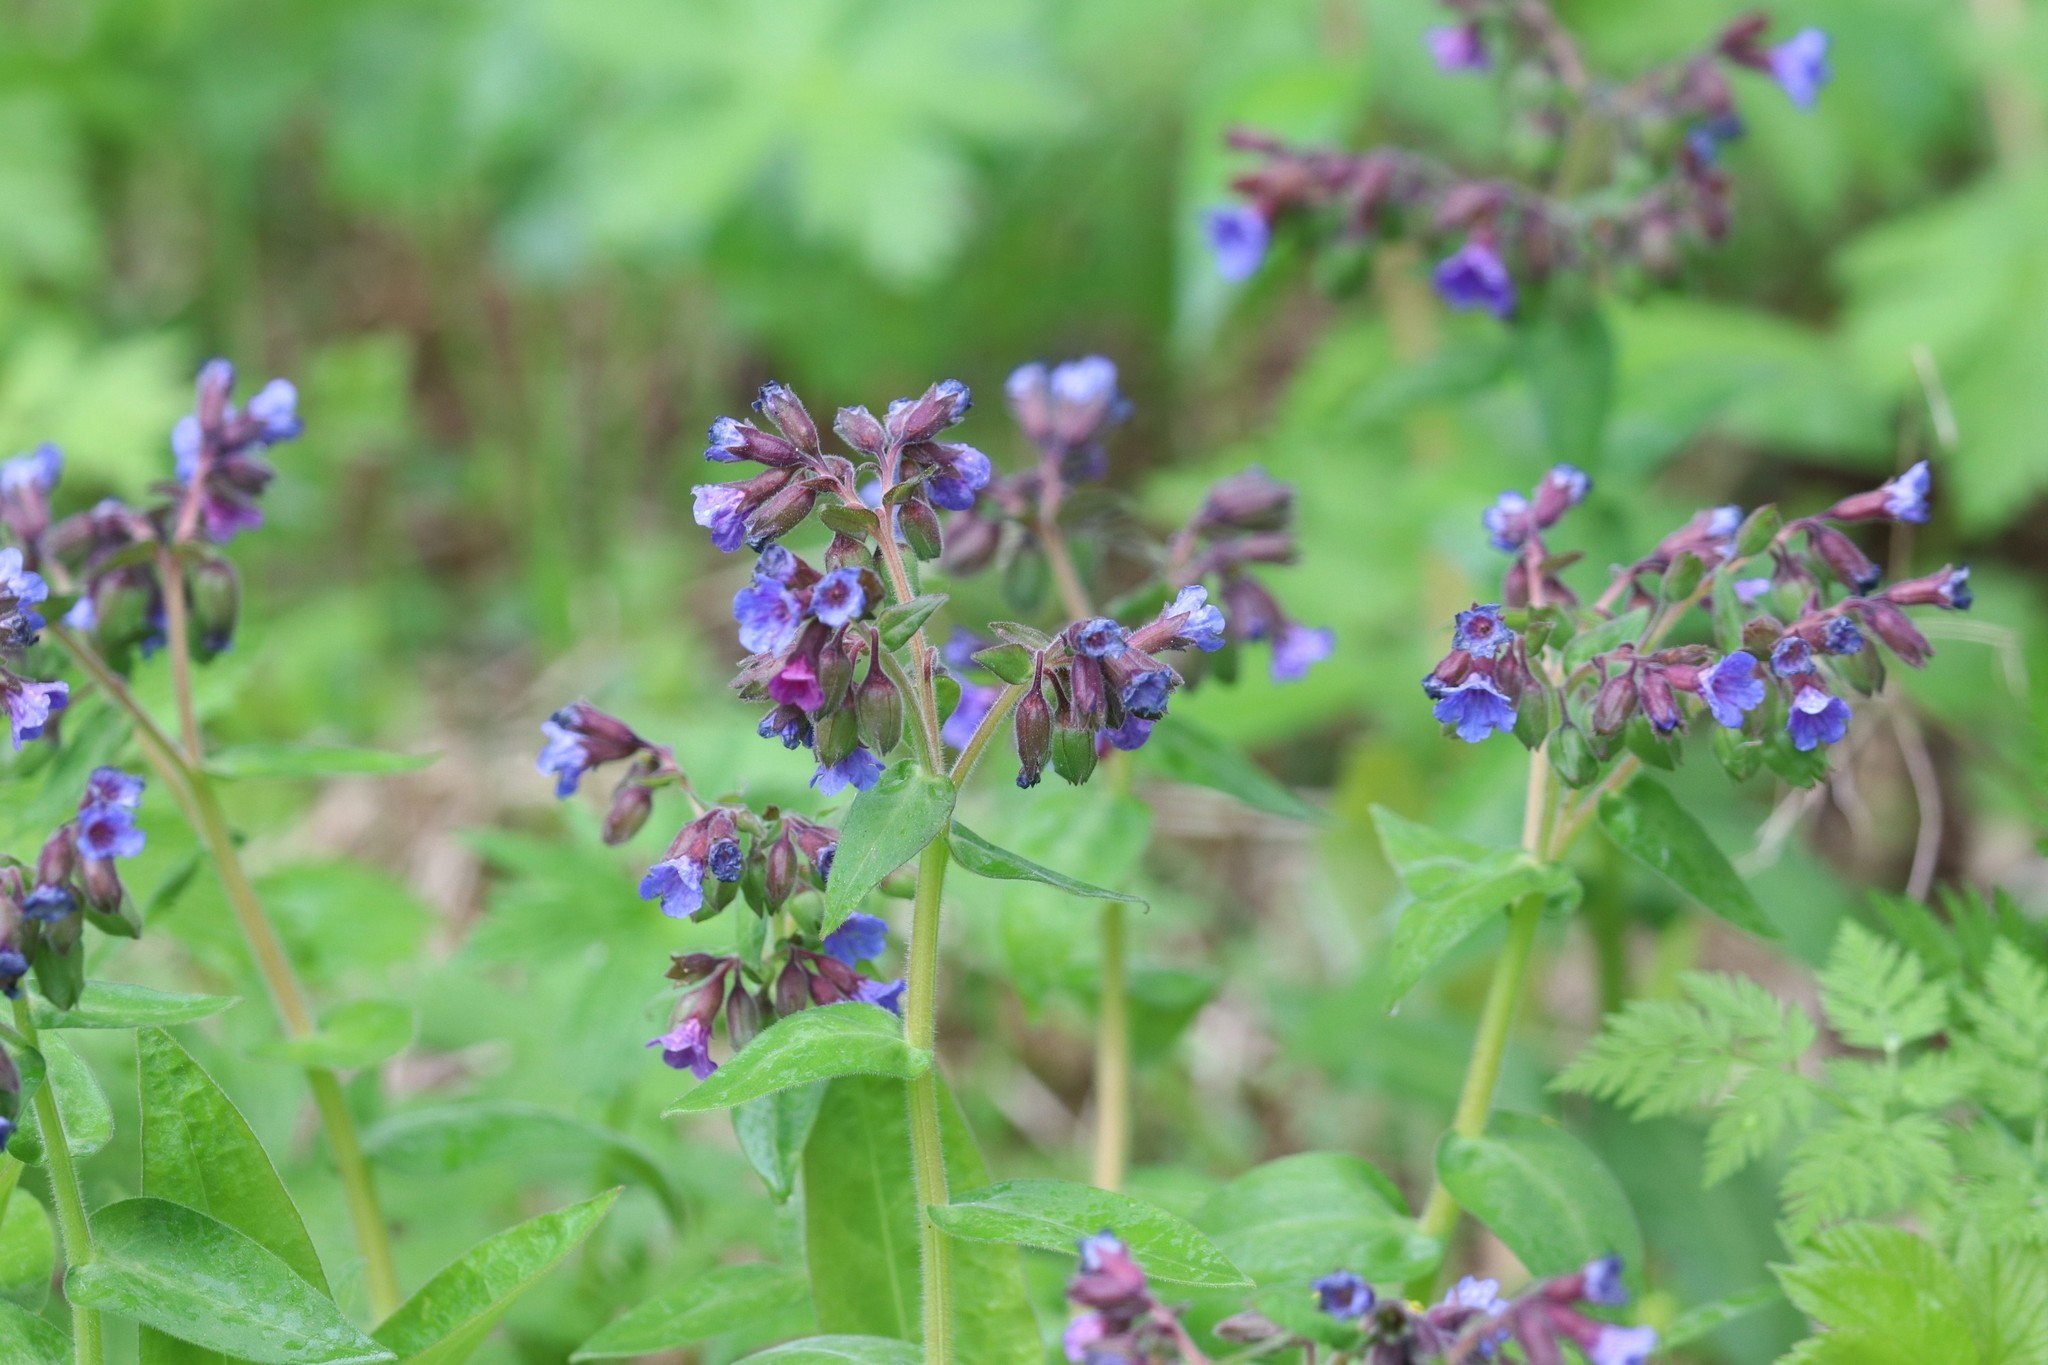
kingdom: Plantae
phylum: Tracheophyta
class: Magnoliopsida
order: Boraginales
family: Boraginaceae
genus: Pulmonaria
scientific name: Pulmonaria mollis
